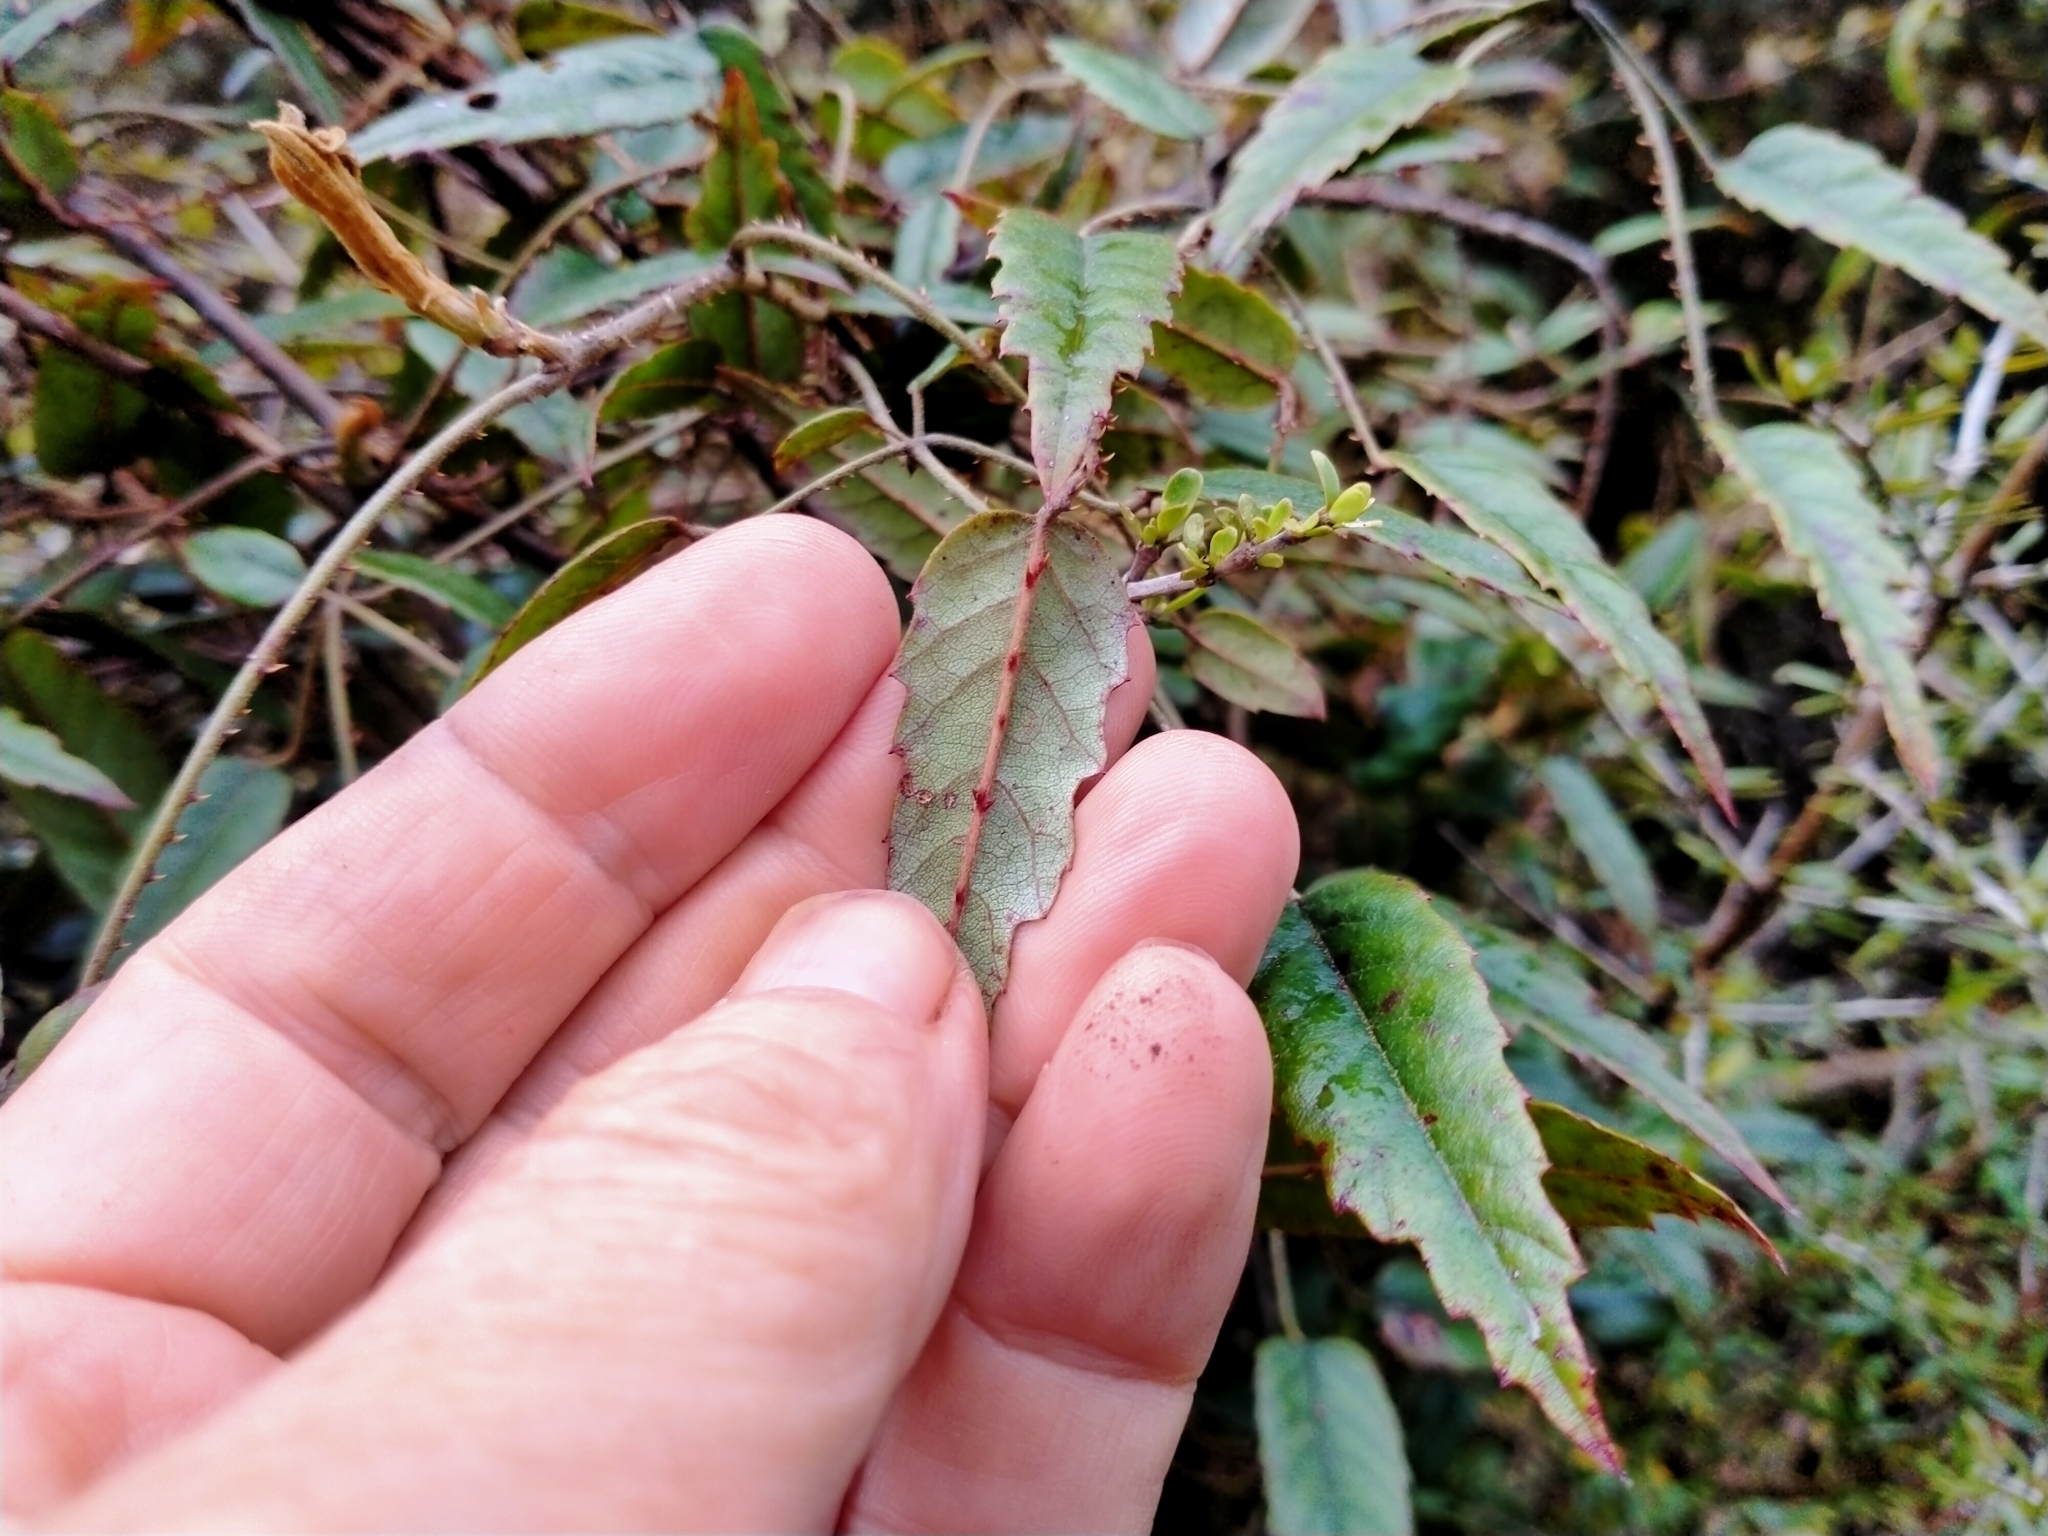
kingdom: Plantae
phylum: Tracheophyta
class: Magnoliopsida
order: Rosales
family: Rosaceae
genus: Rubus
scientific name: Rubus schmidelioides
